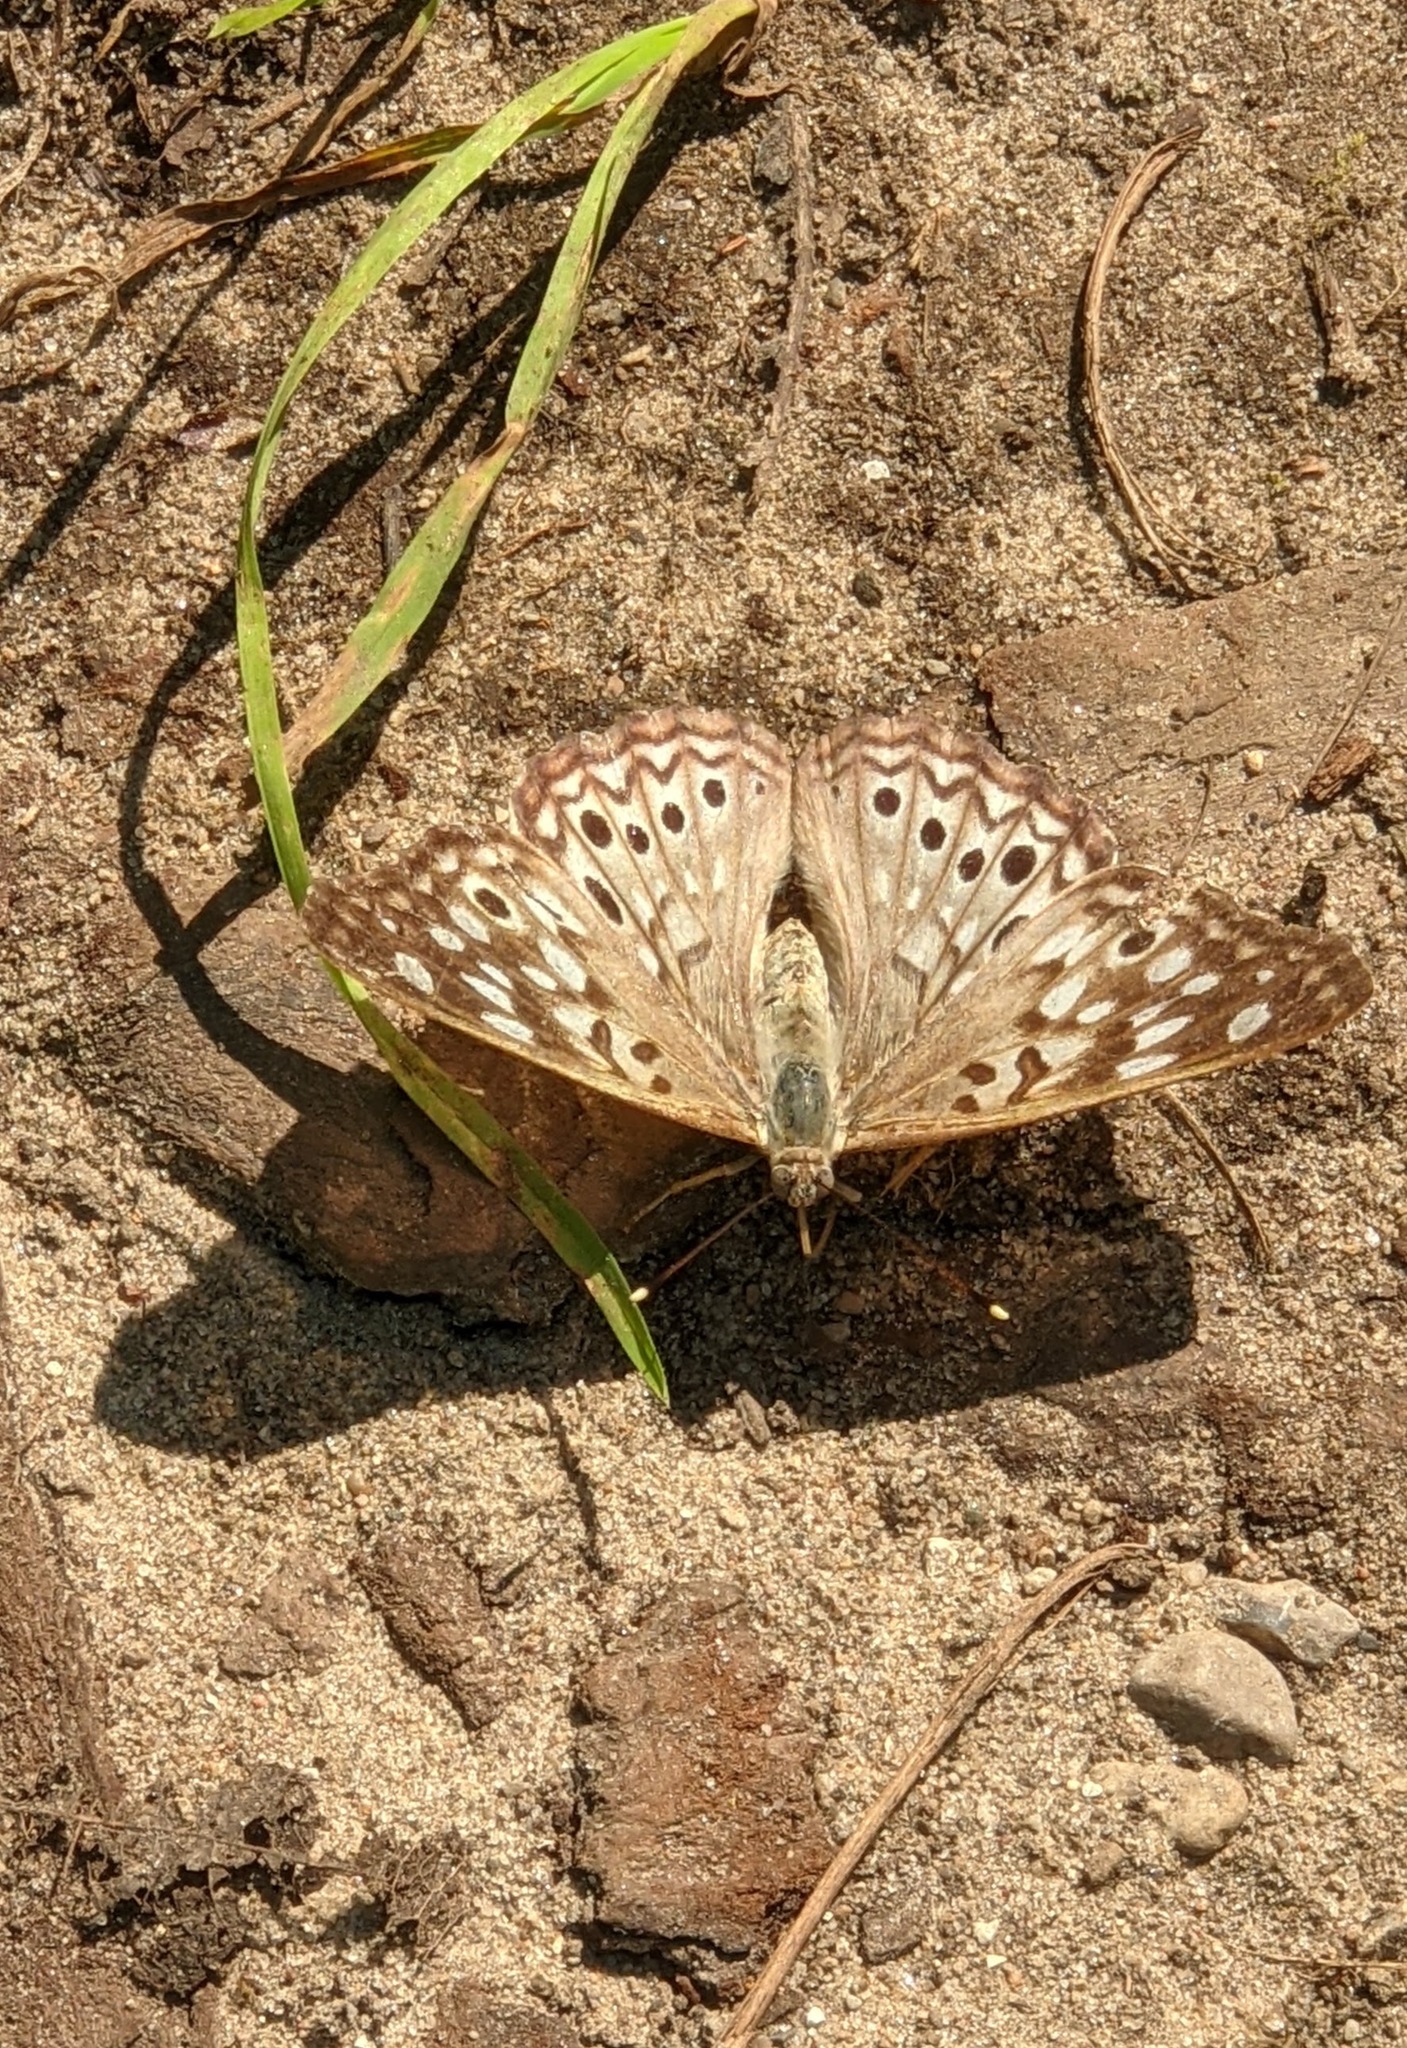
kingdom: Animalia
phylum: Arthropoda
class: Insecta
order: Lepidoptera
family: Nymphalidae
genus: Asterocampa
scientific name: Asterocampa celtis
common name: Hackberry emperor
